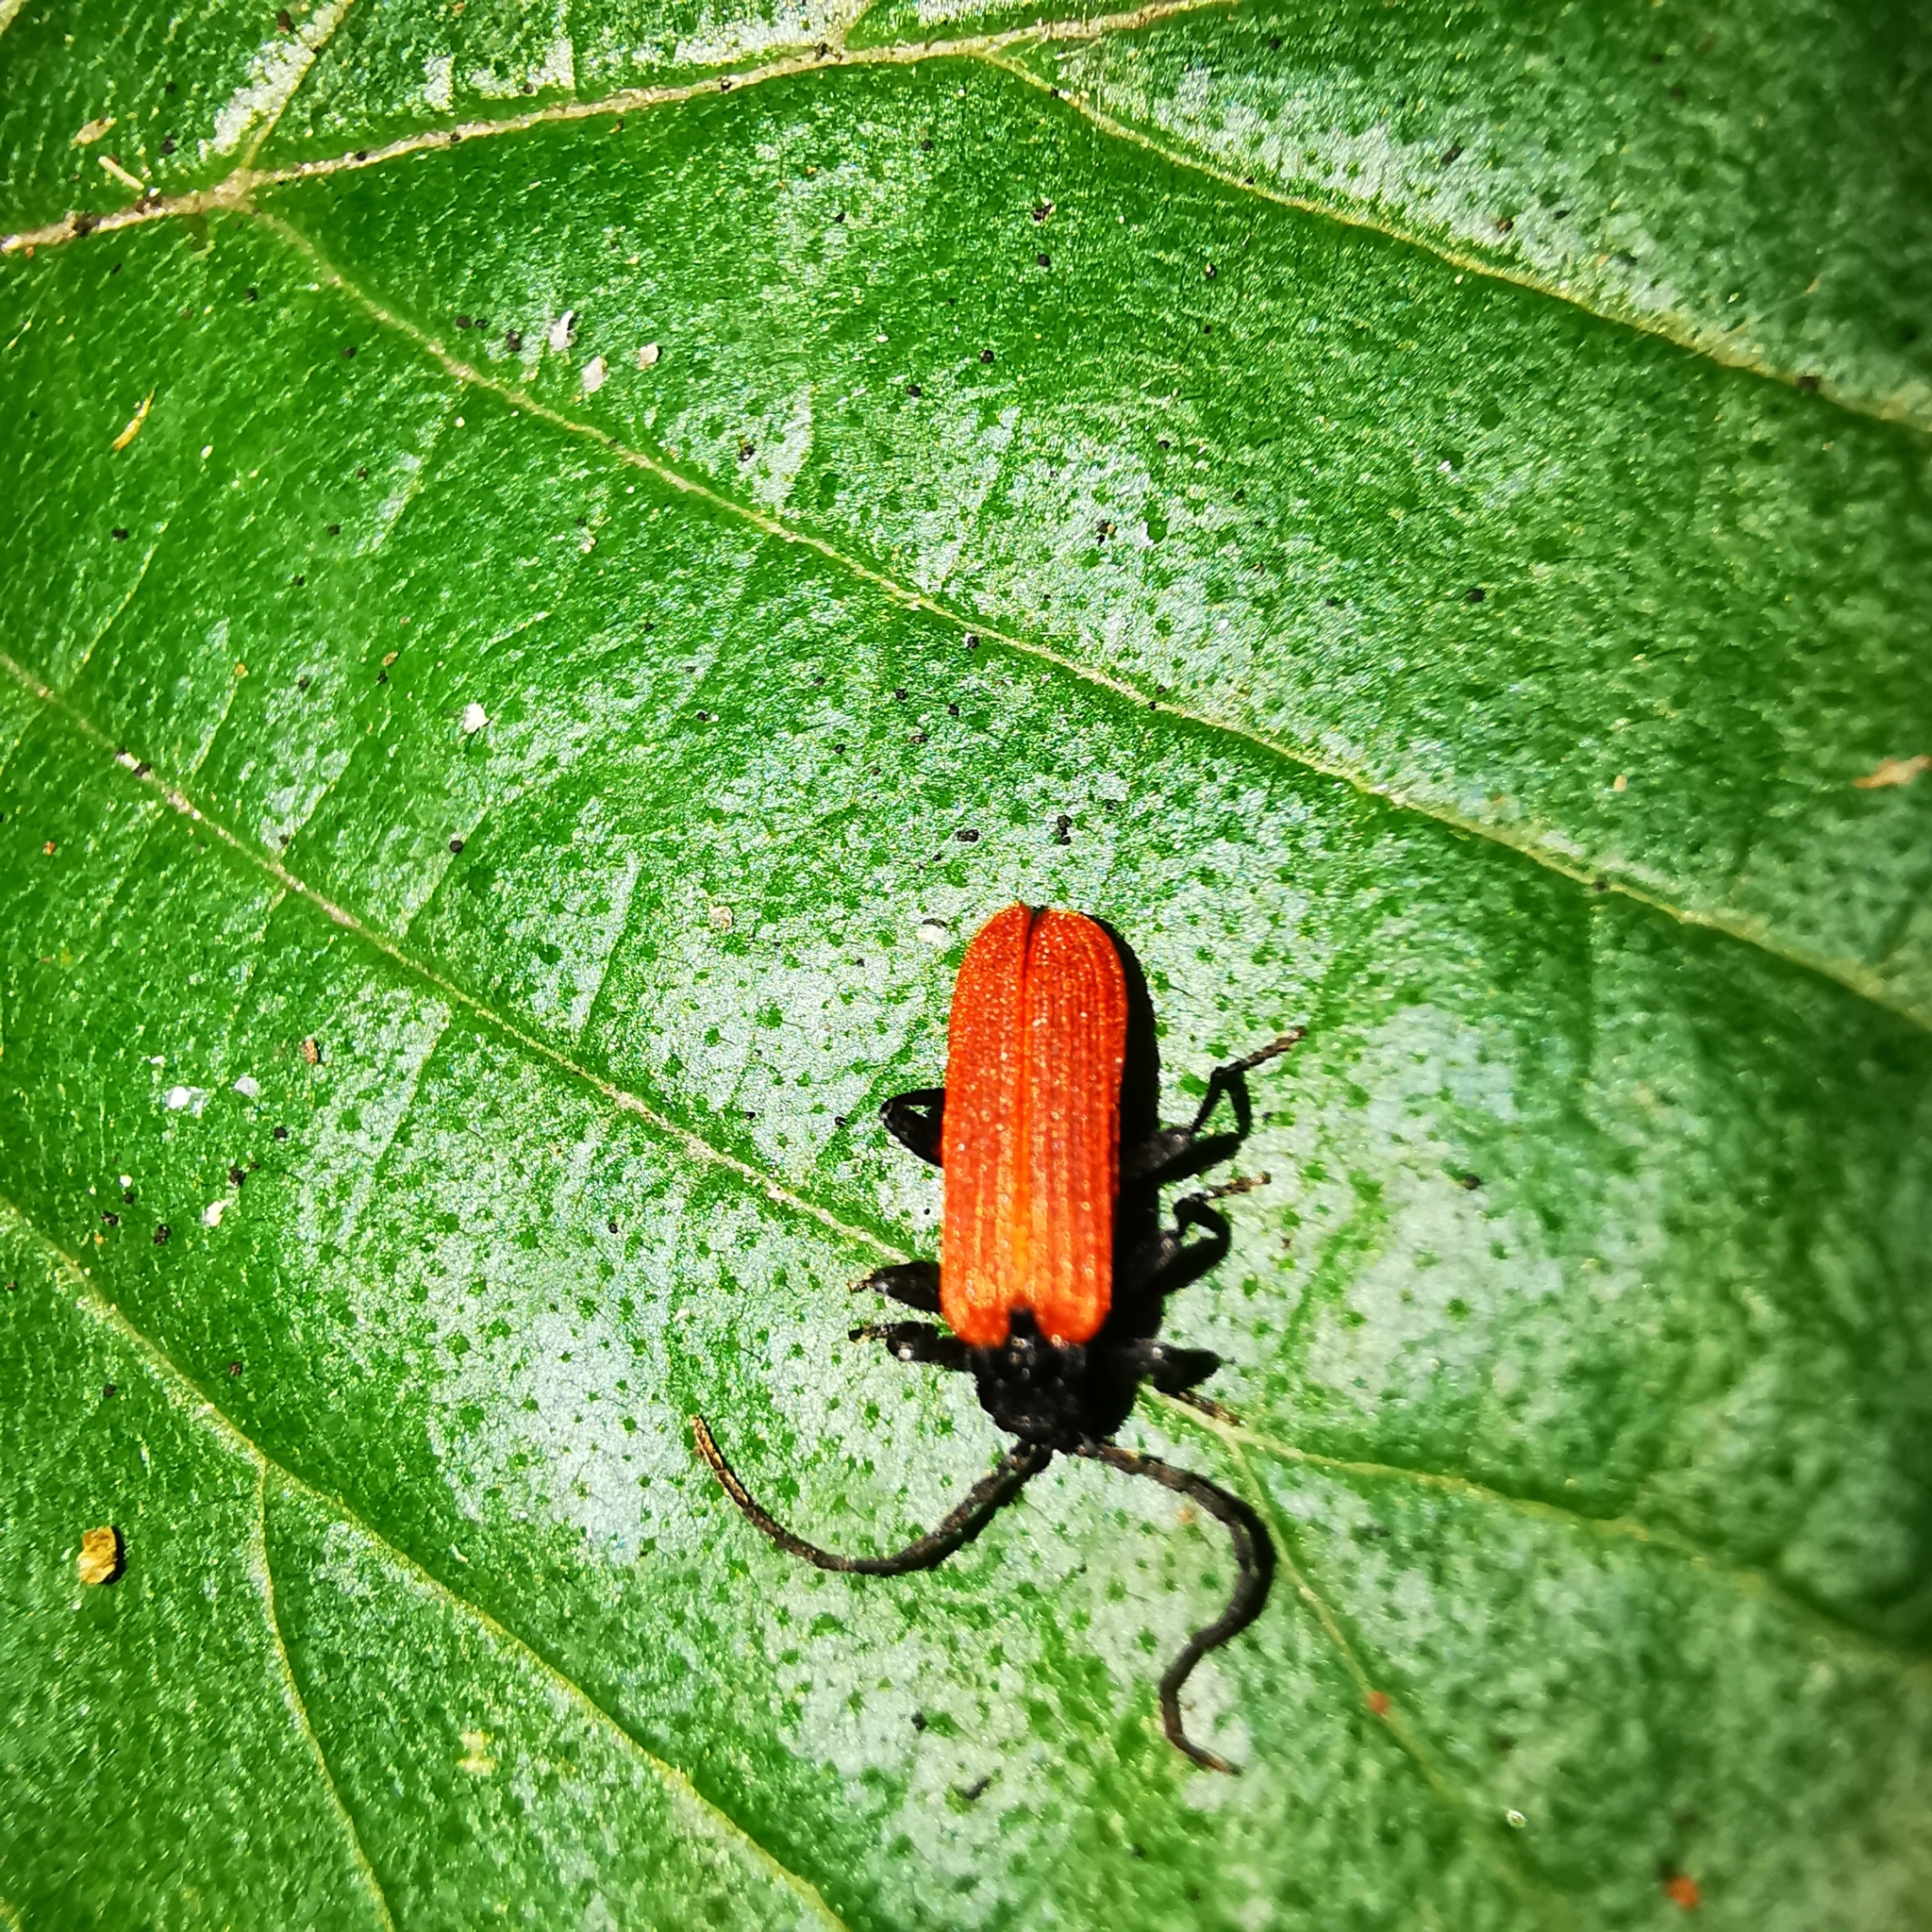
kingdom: Animalia
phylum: Arthropoda
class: Insecta
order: Coleoptera
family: Lycidae
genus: Platycis
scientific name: Platycis minutus
